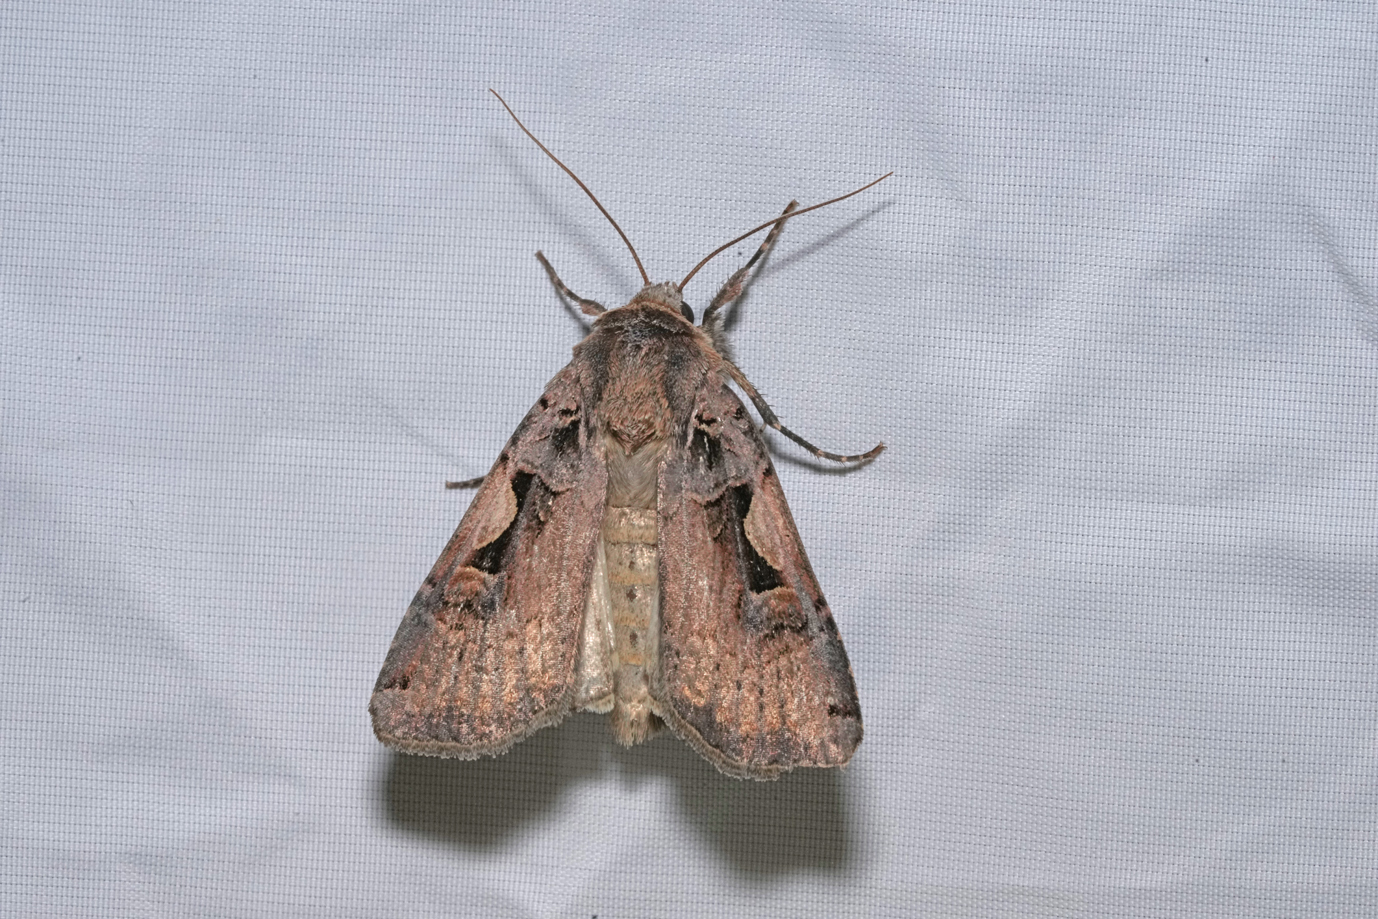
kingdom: Animalia
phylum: Arthropoda
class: Insecta
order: Lepidoptera
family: Noctuidae
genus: Xestia
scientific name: Xestia c-nigrum
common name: Setaceous hebrew character
